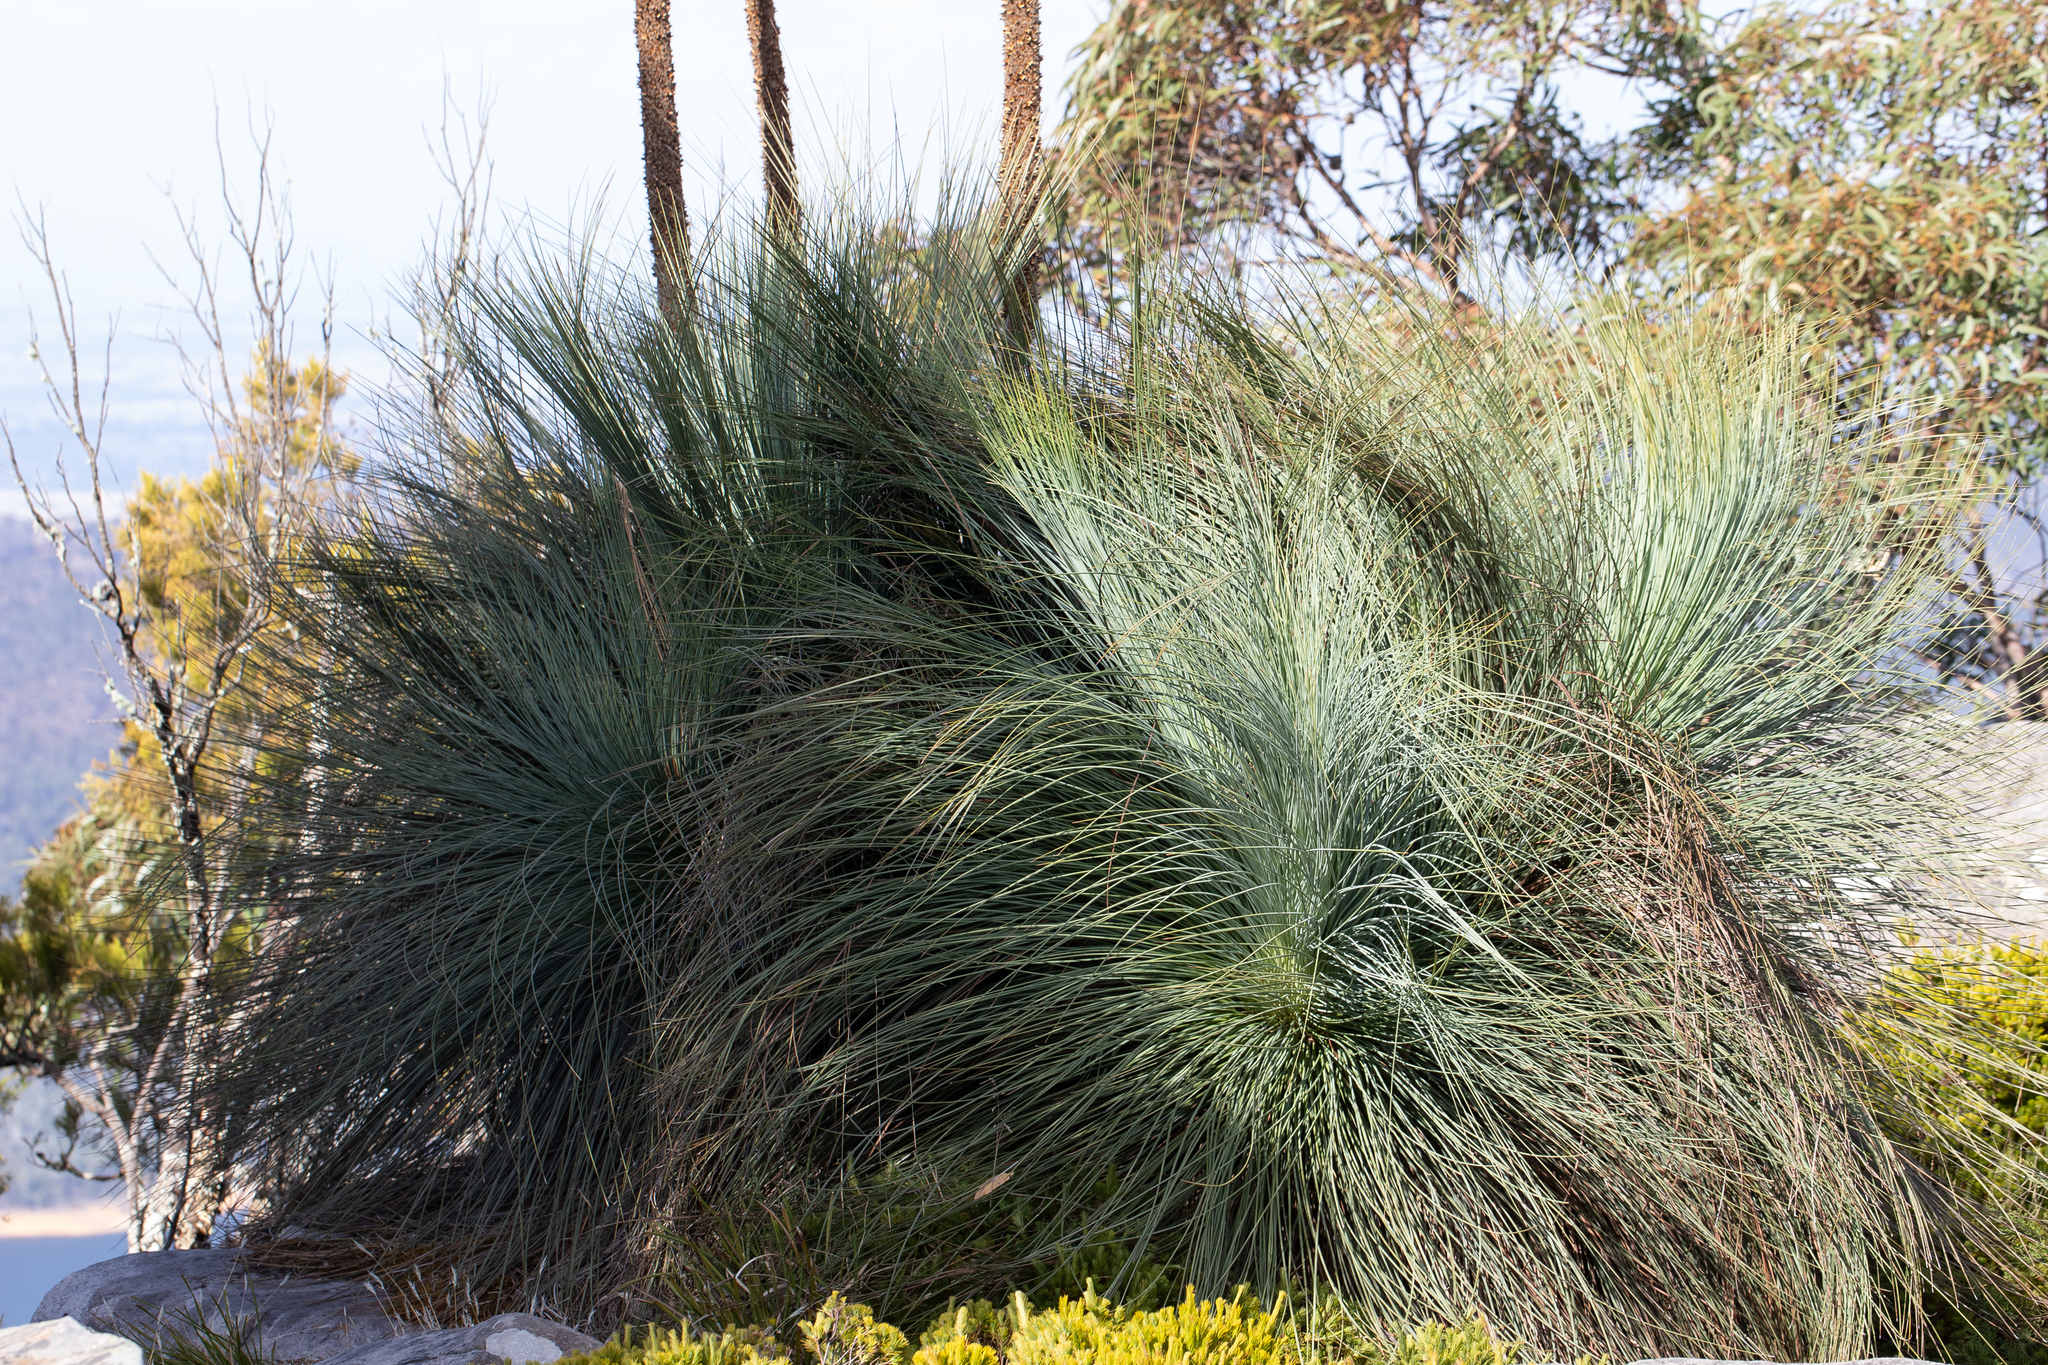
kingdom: Plantae
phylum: Tracheophyta
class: Liliopsida
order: Asparagales
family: Asphodelaceae
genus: Xanthorrhoea
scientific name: Xanthorrhoea australis
